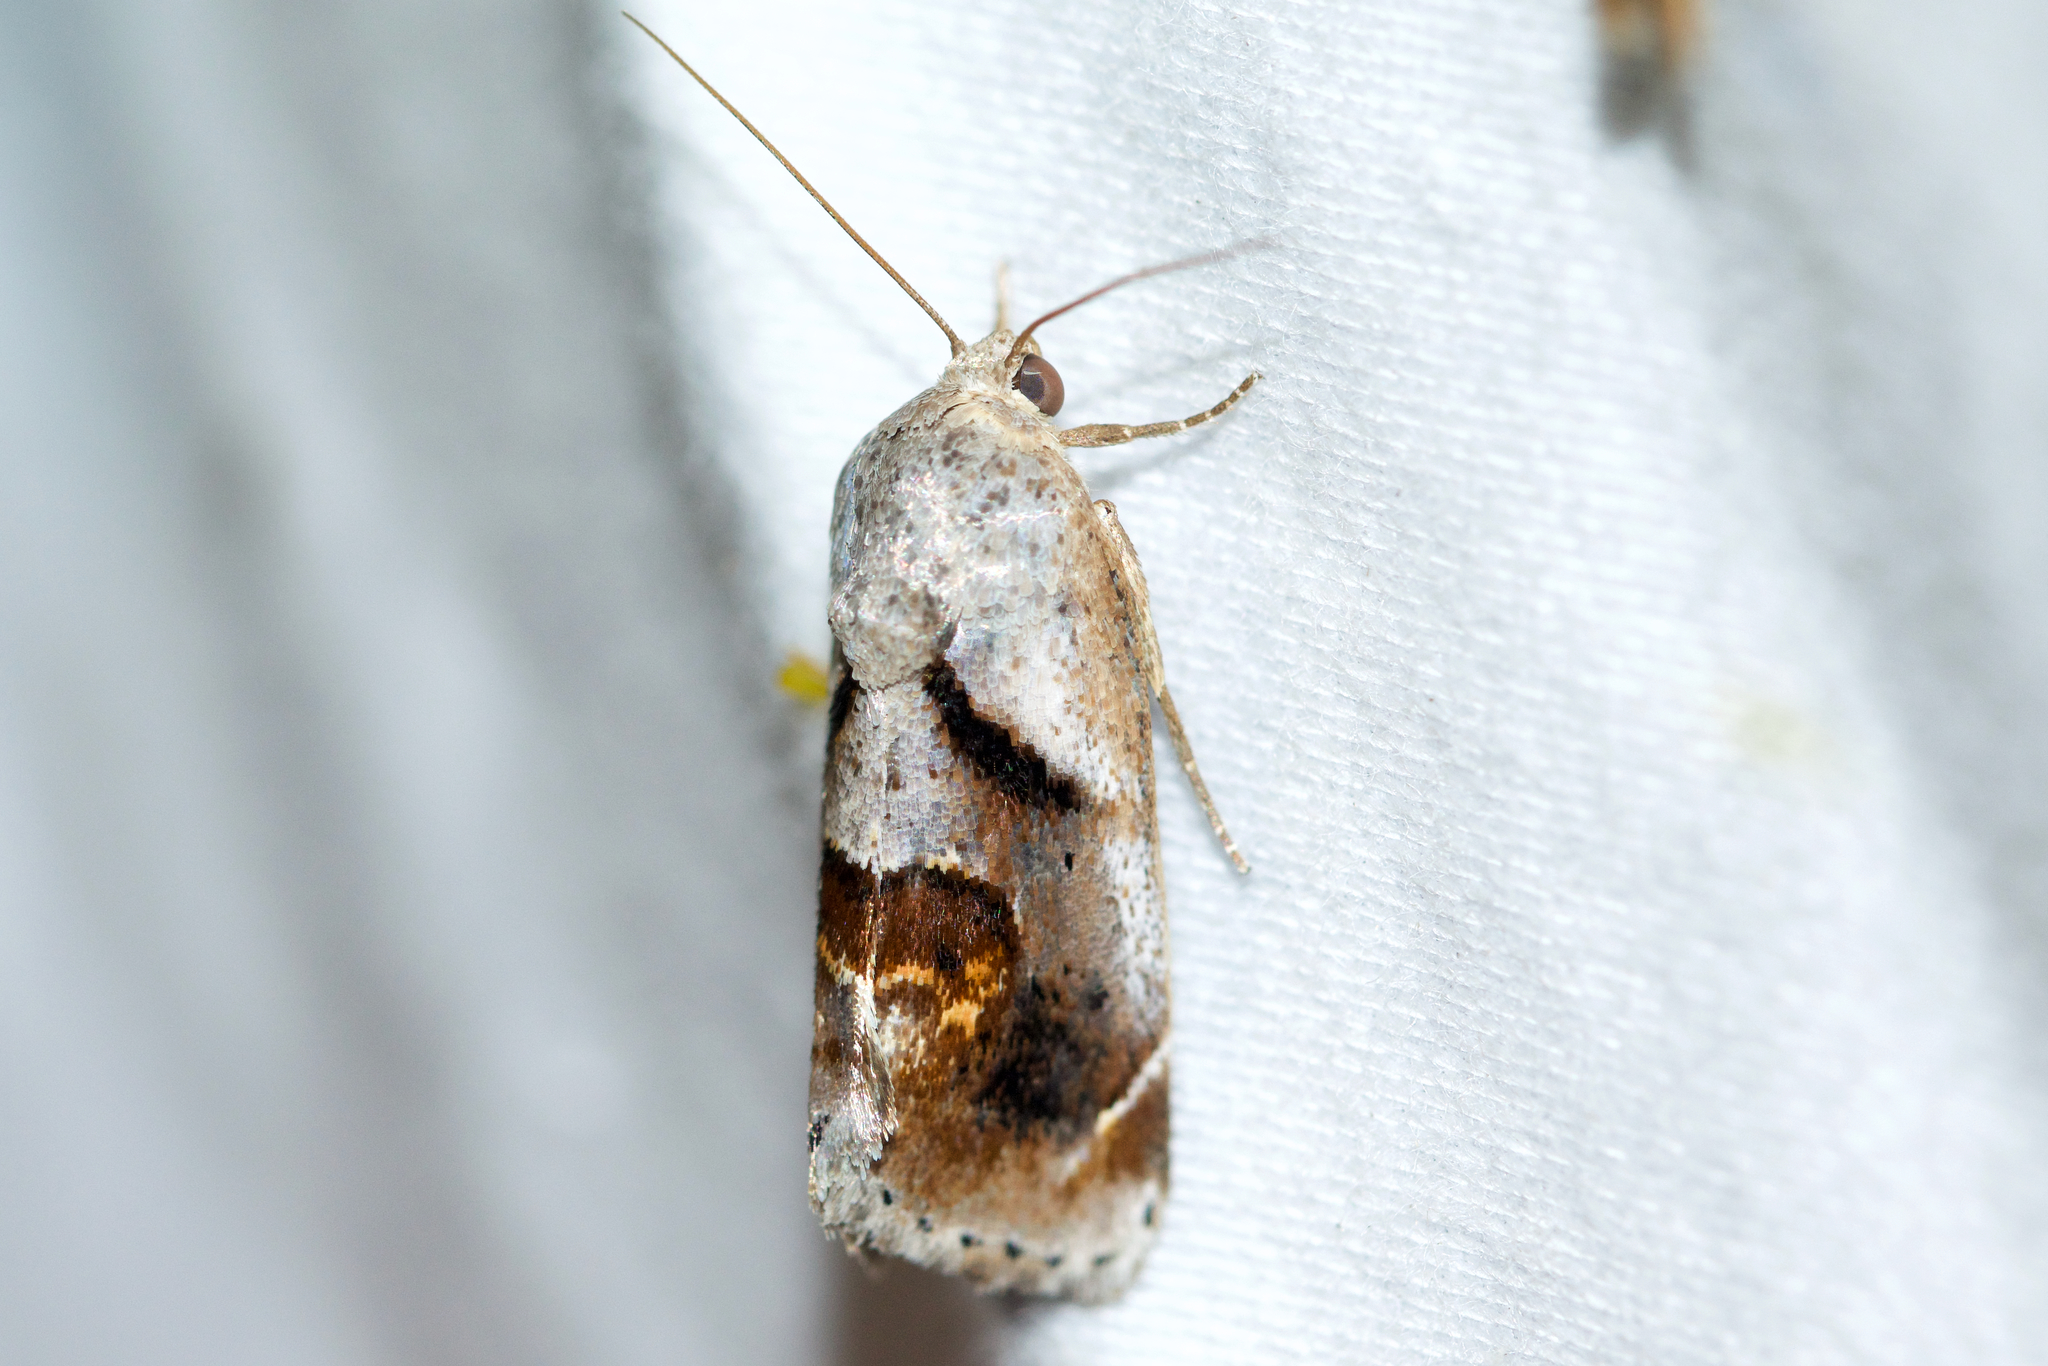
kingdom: Animalia
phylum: Arthropoda
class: Insecta
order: Lepidoptera
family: Noctuidae
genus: Acontia
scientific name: Acontia Tarache terminimaculata
